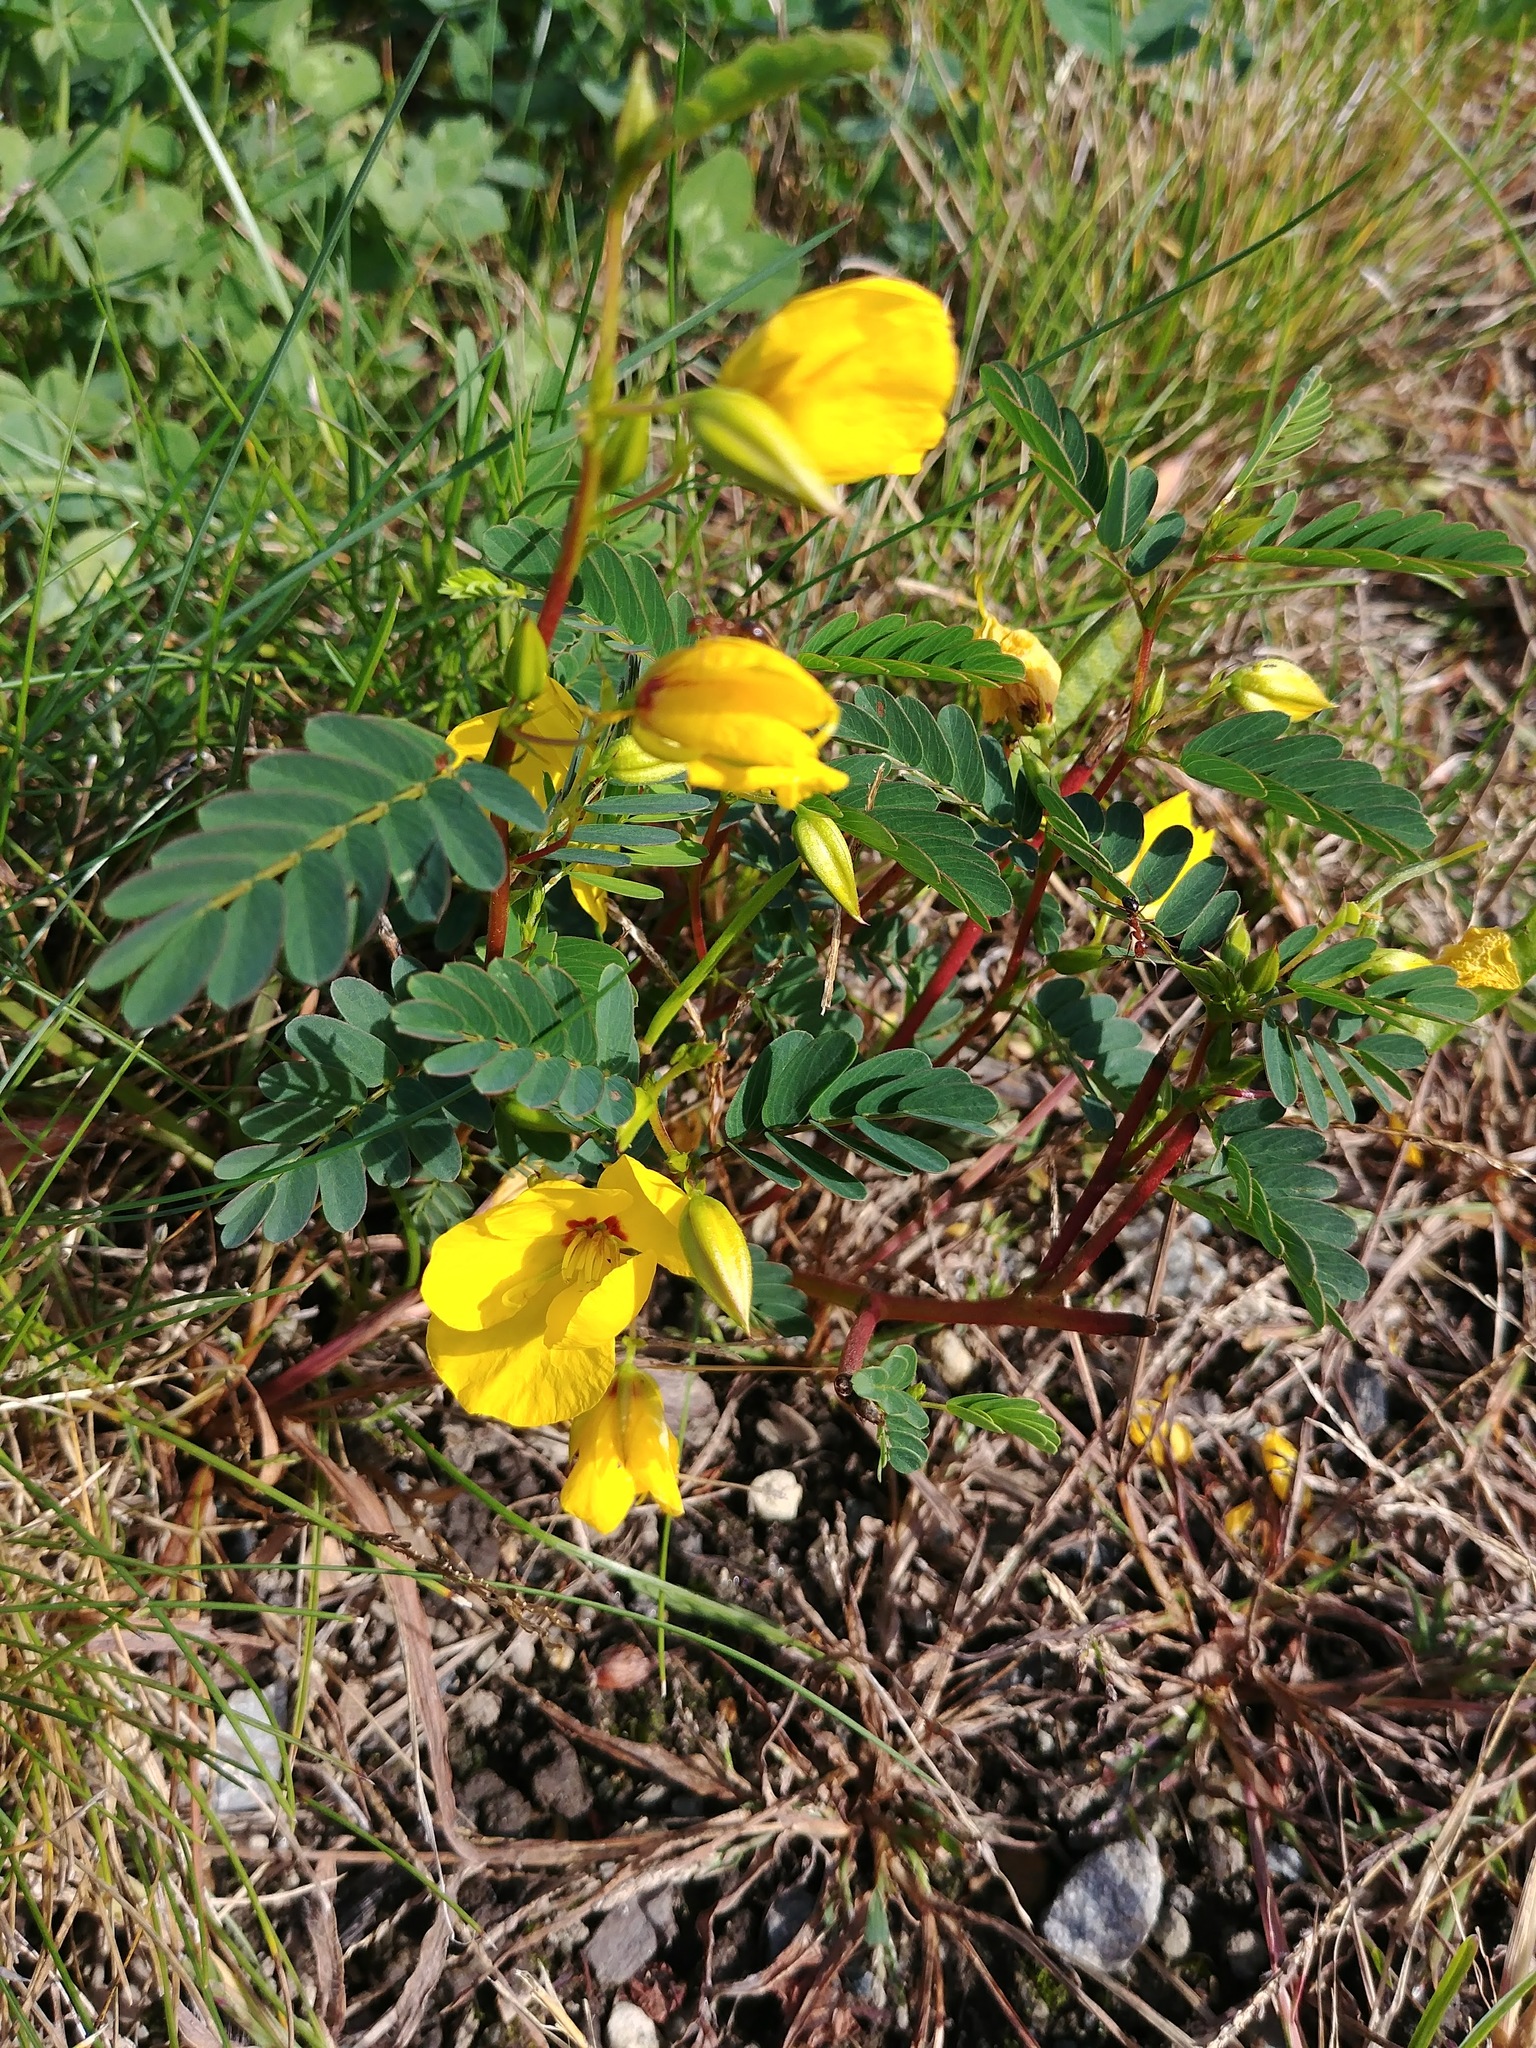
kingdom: Plantae
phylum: Tracheophyta
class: Magnoliopsida
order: Fabales
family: Fabaceae
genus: Chamaecrista
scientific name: Chamaecrista fasciculata
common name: Golden cassia
